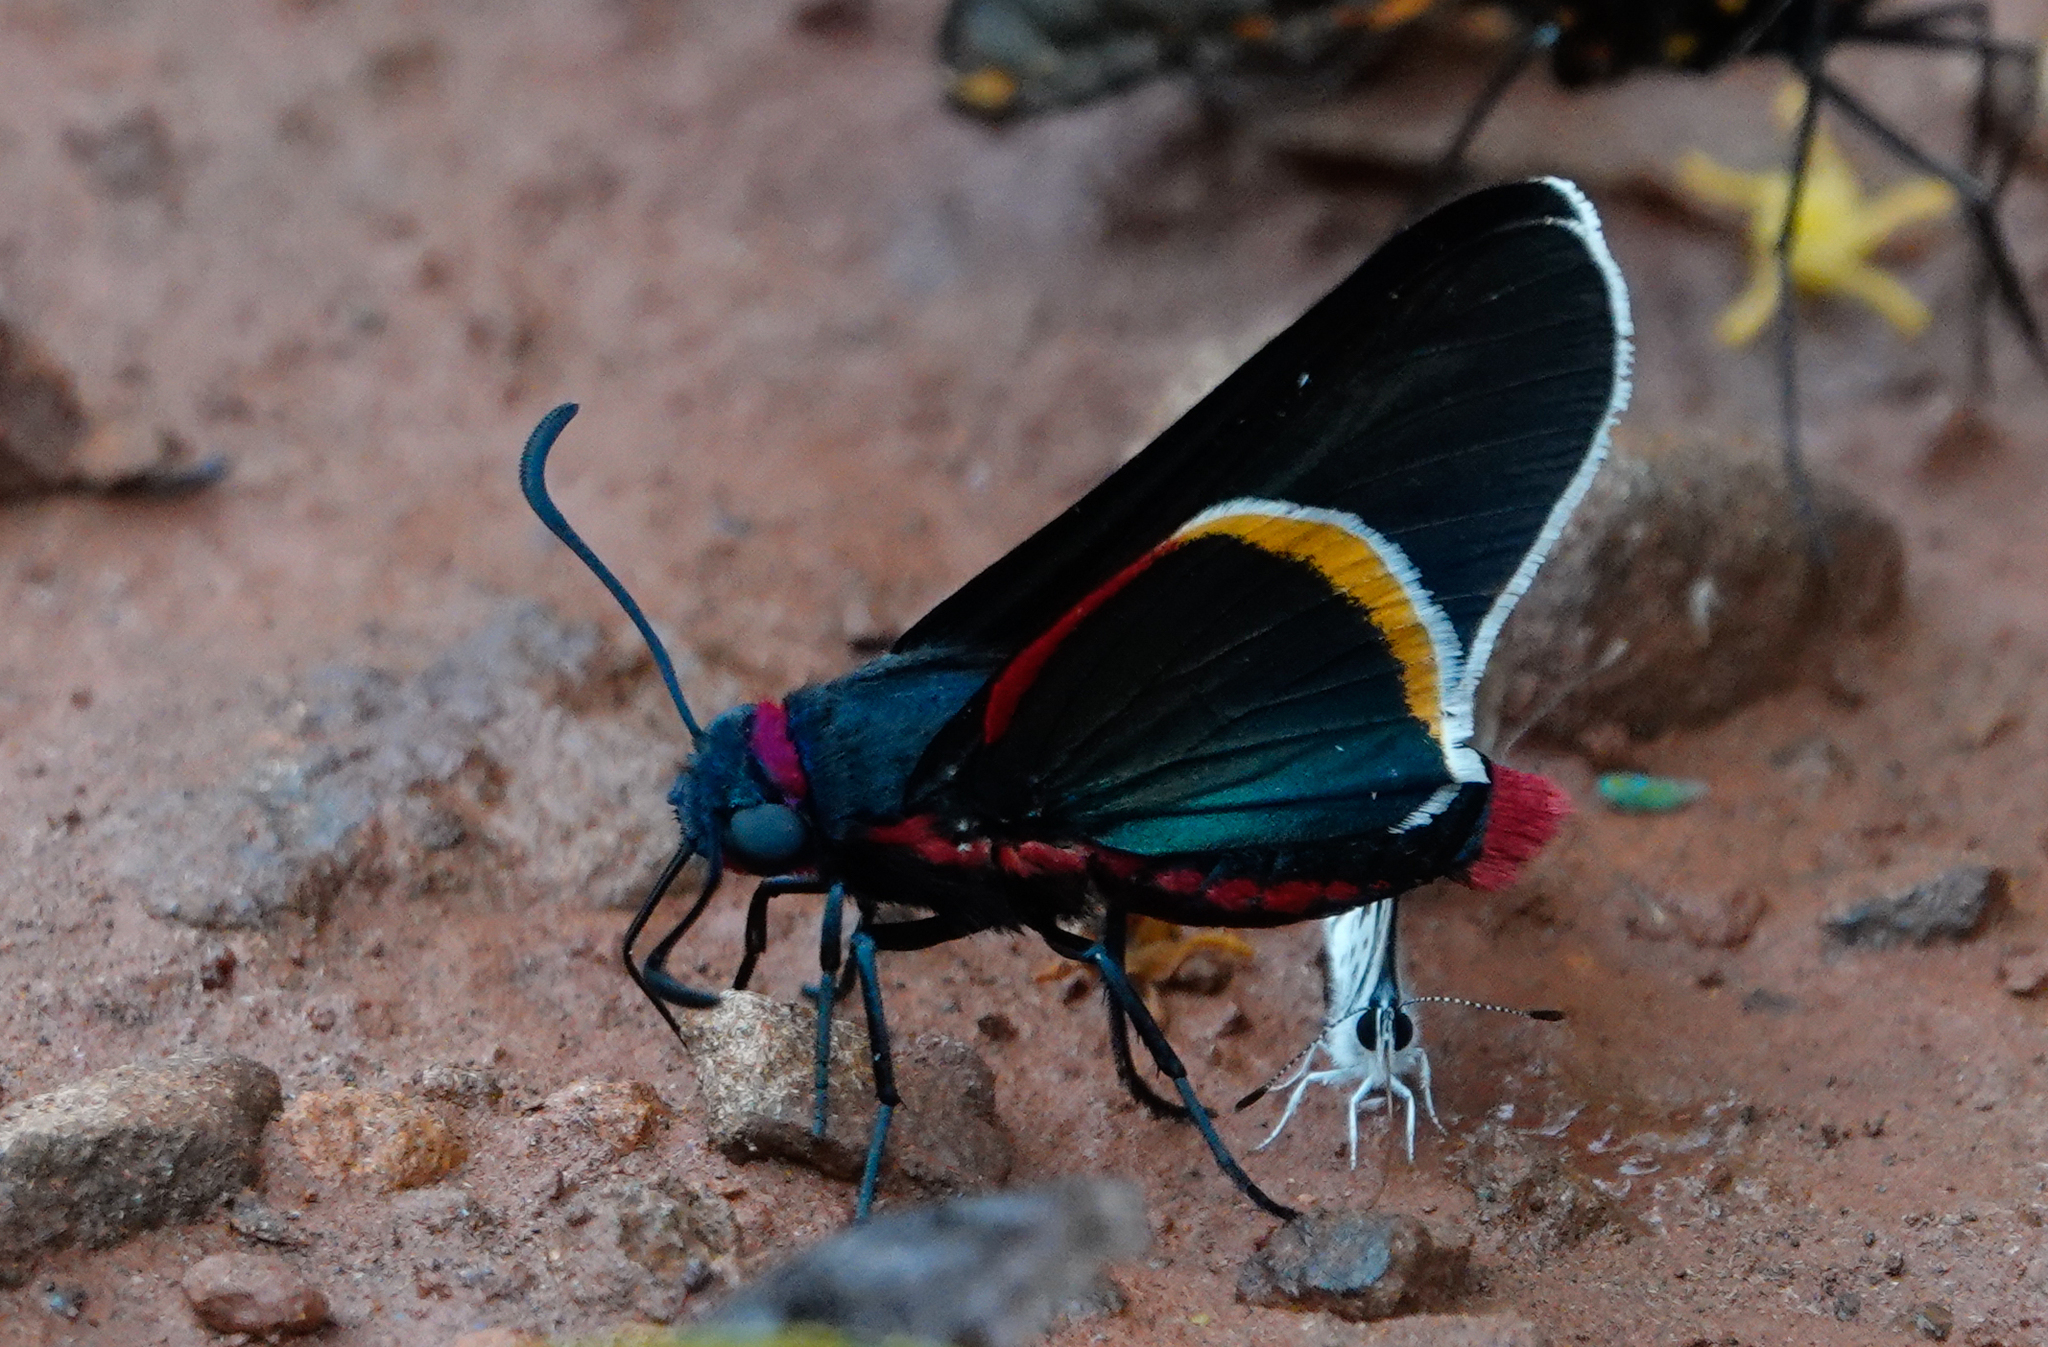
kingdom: Animalia
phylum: Arthropoda
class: Insecta
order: Lepidoptera
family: Hesperiidae
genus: Mysoria
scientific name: Mysoria barcastus
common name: Royal firetip
